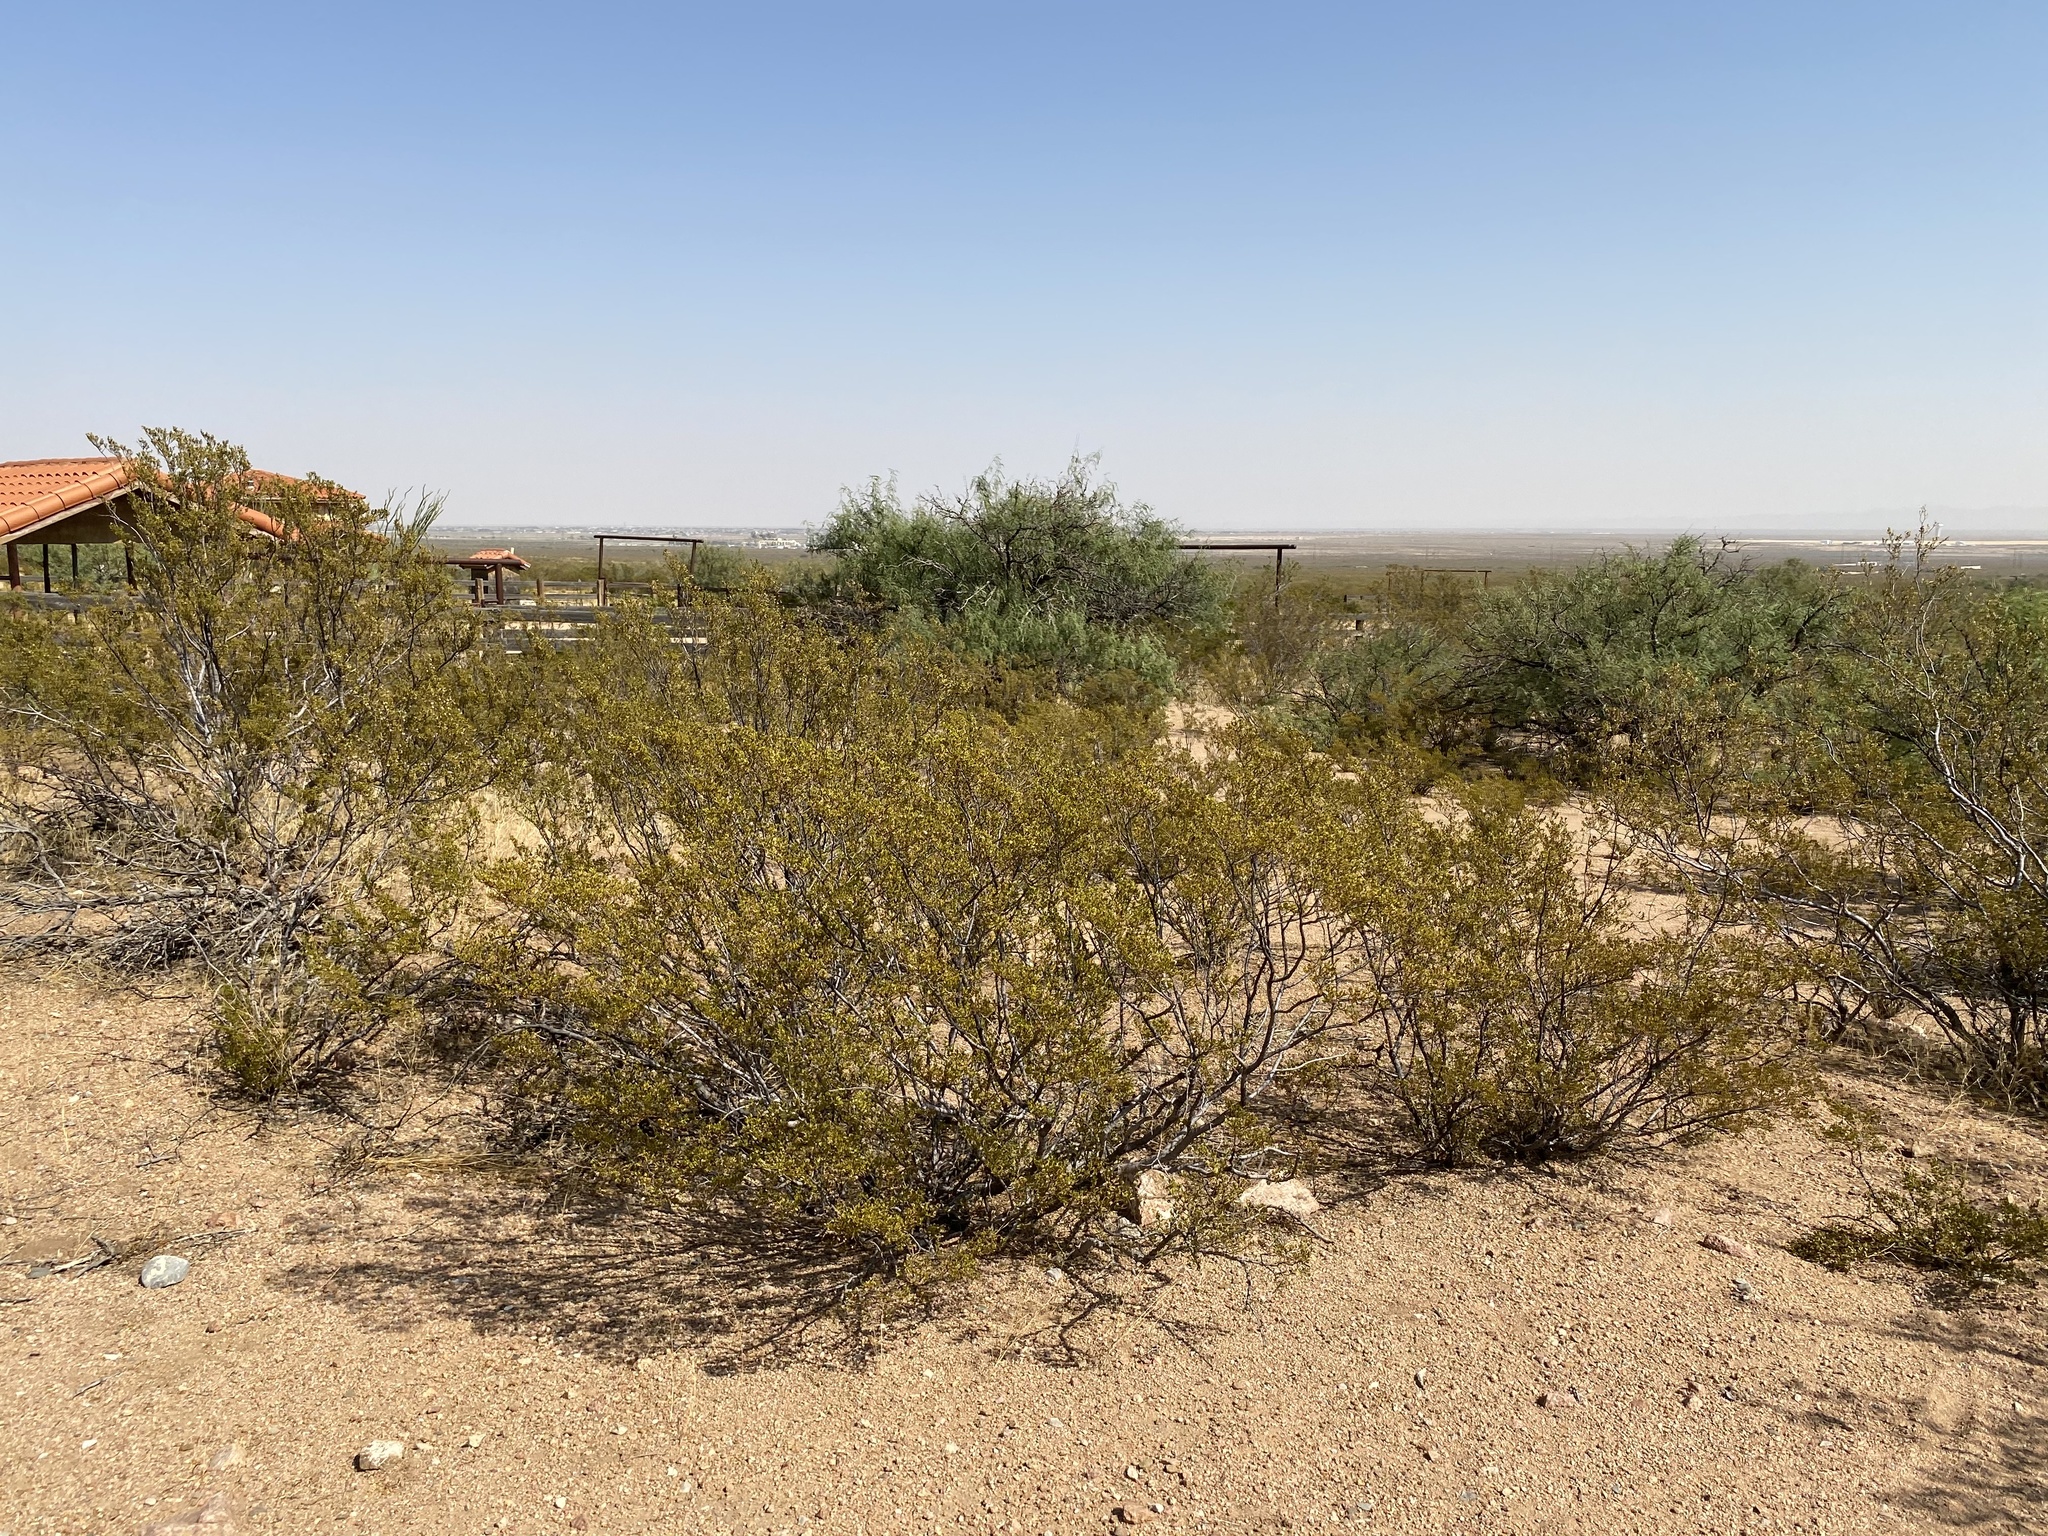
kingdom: Plantae
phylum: Tracheophyta
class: Magnoliopsida
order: Zygophyllales
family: Zygophyllaceae
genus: Larrea
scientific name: Larrea tridentata
